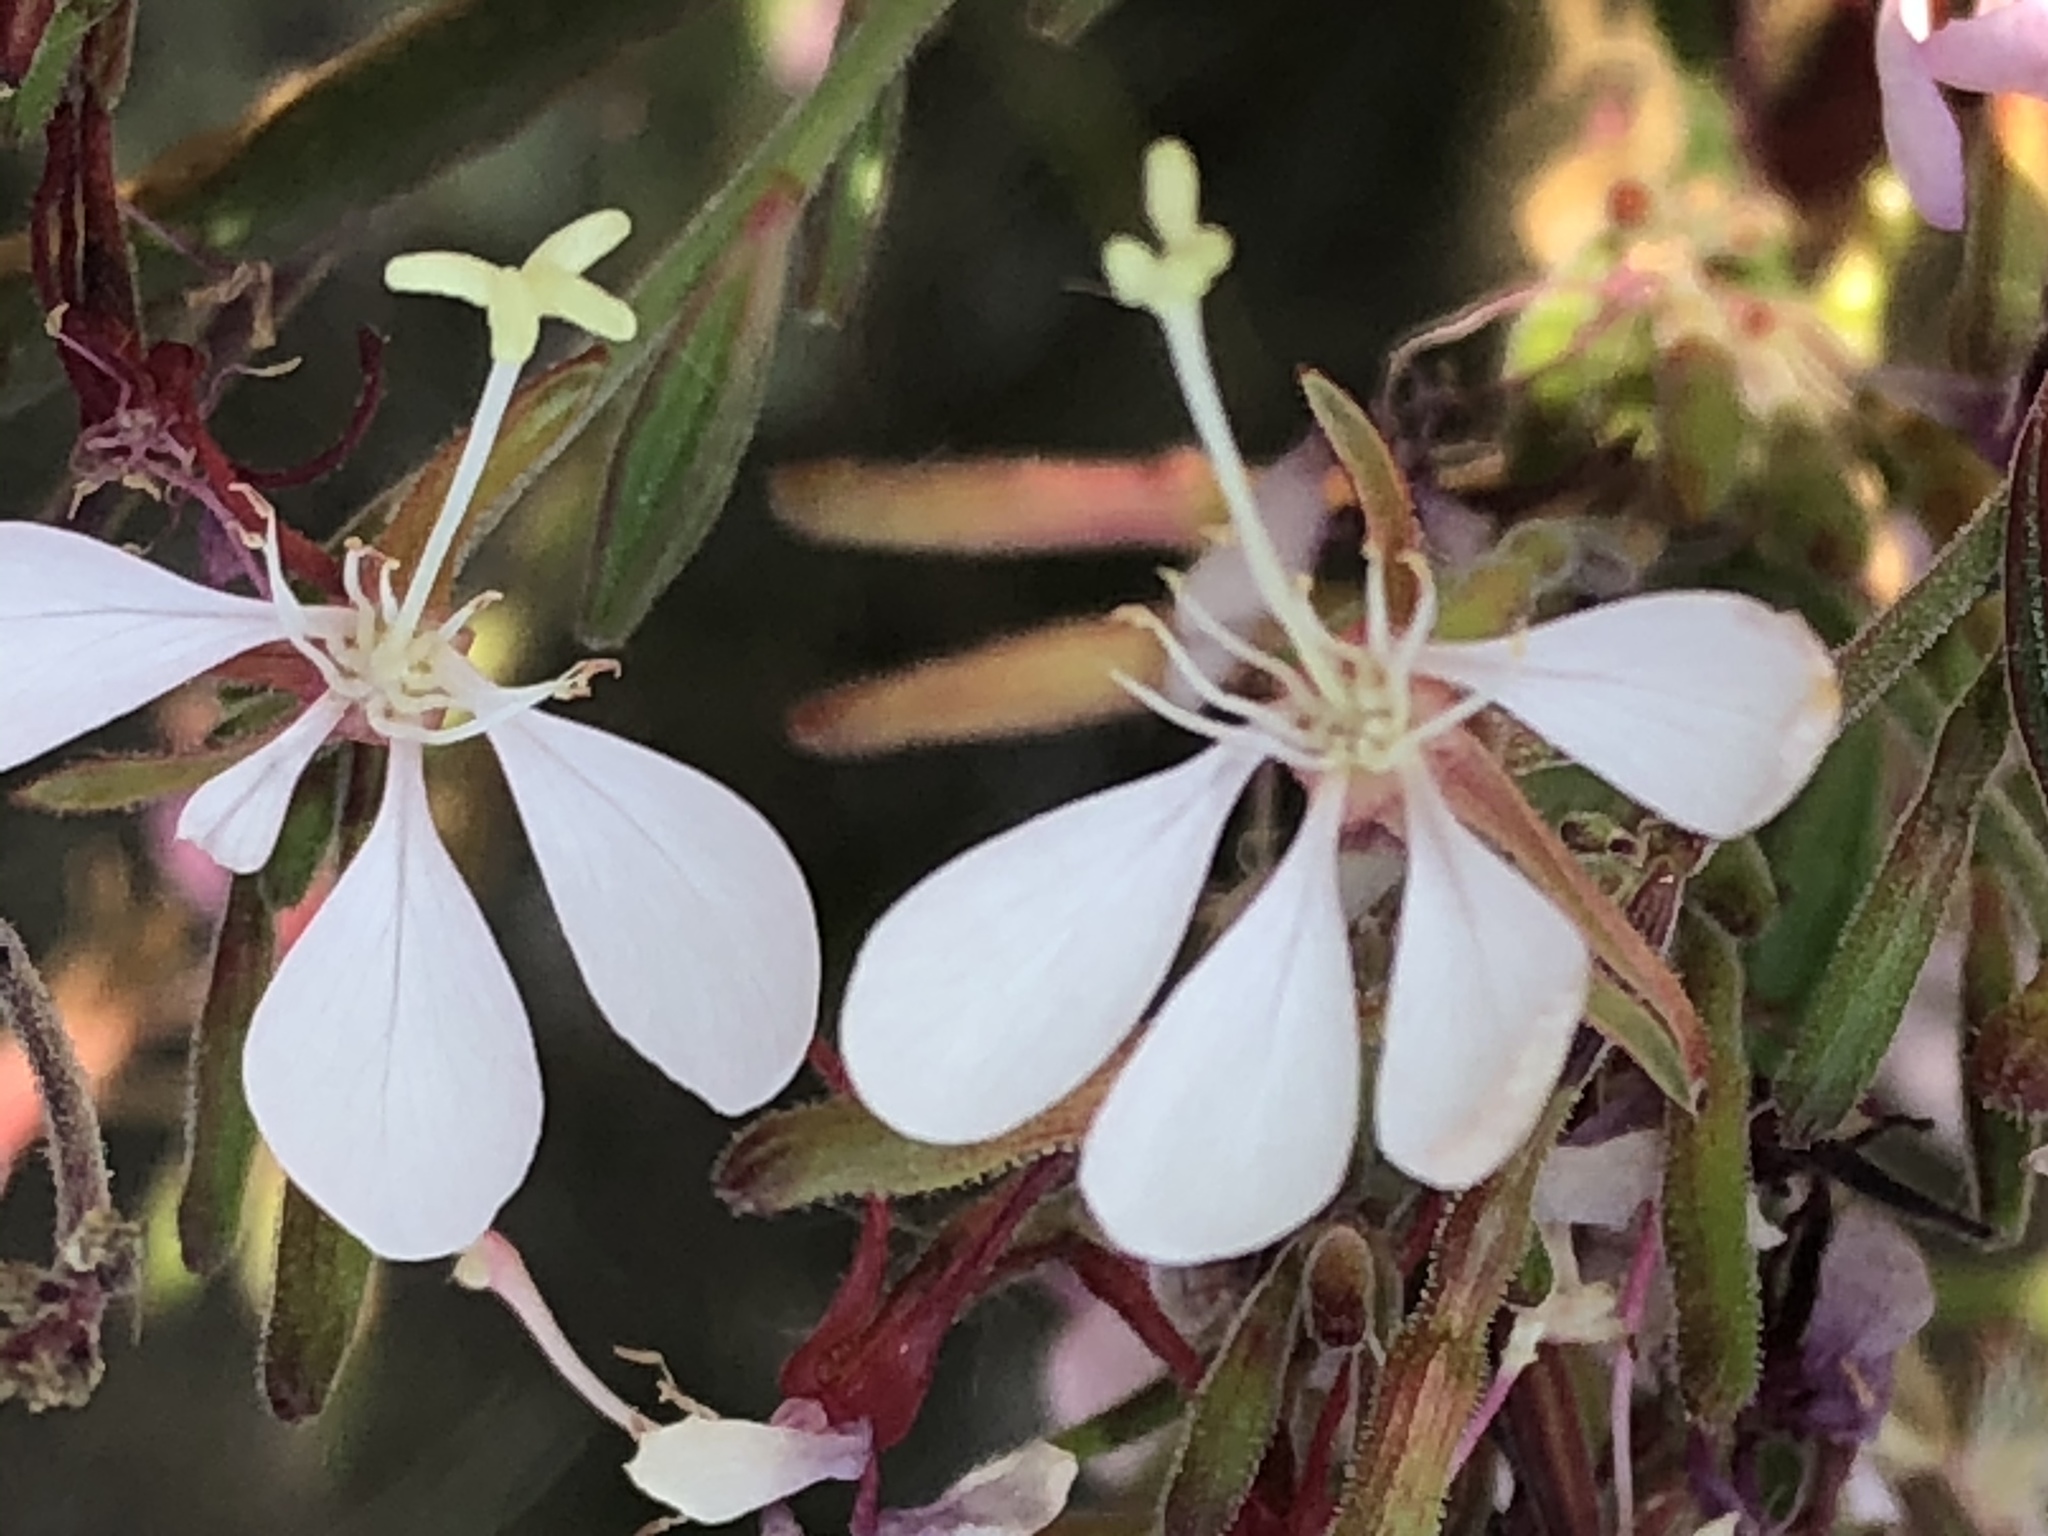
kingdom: Plantae
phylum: Tracheophyta
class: Magnoliopsida
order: Myrtales
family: Onagraceae
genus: Oenothera
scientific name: Oenothera gaura
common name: Biennial beeblossom
